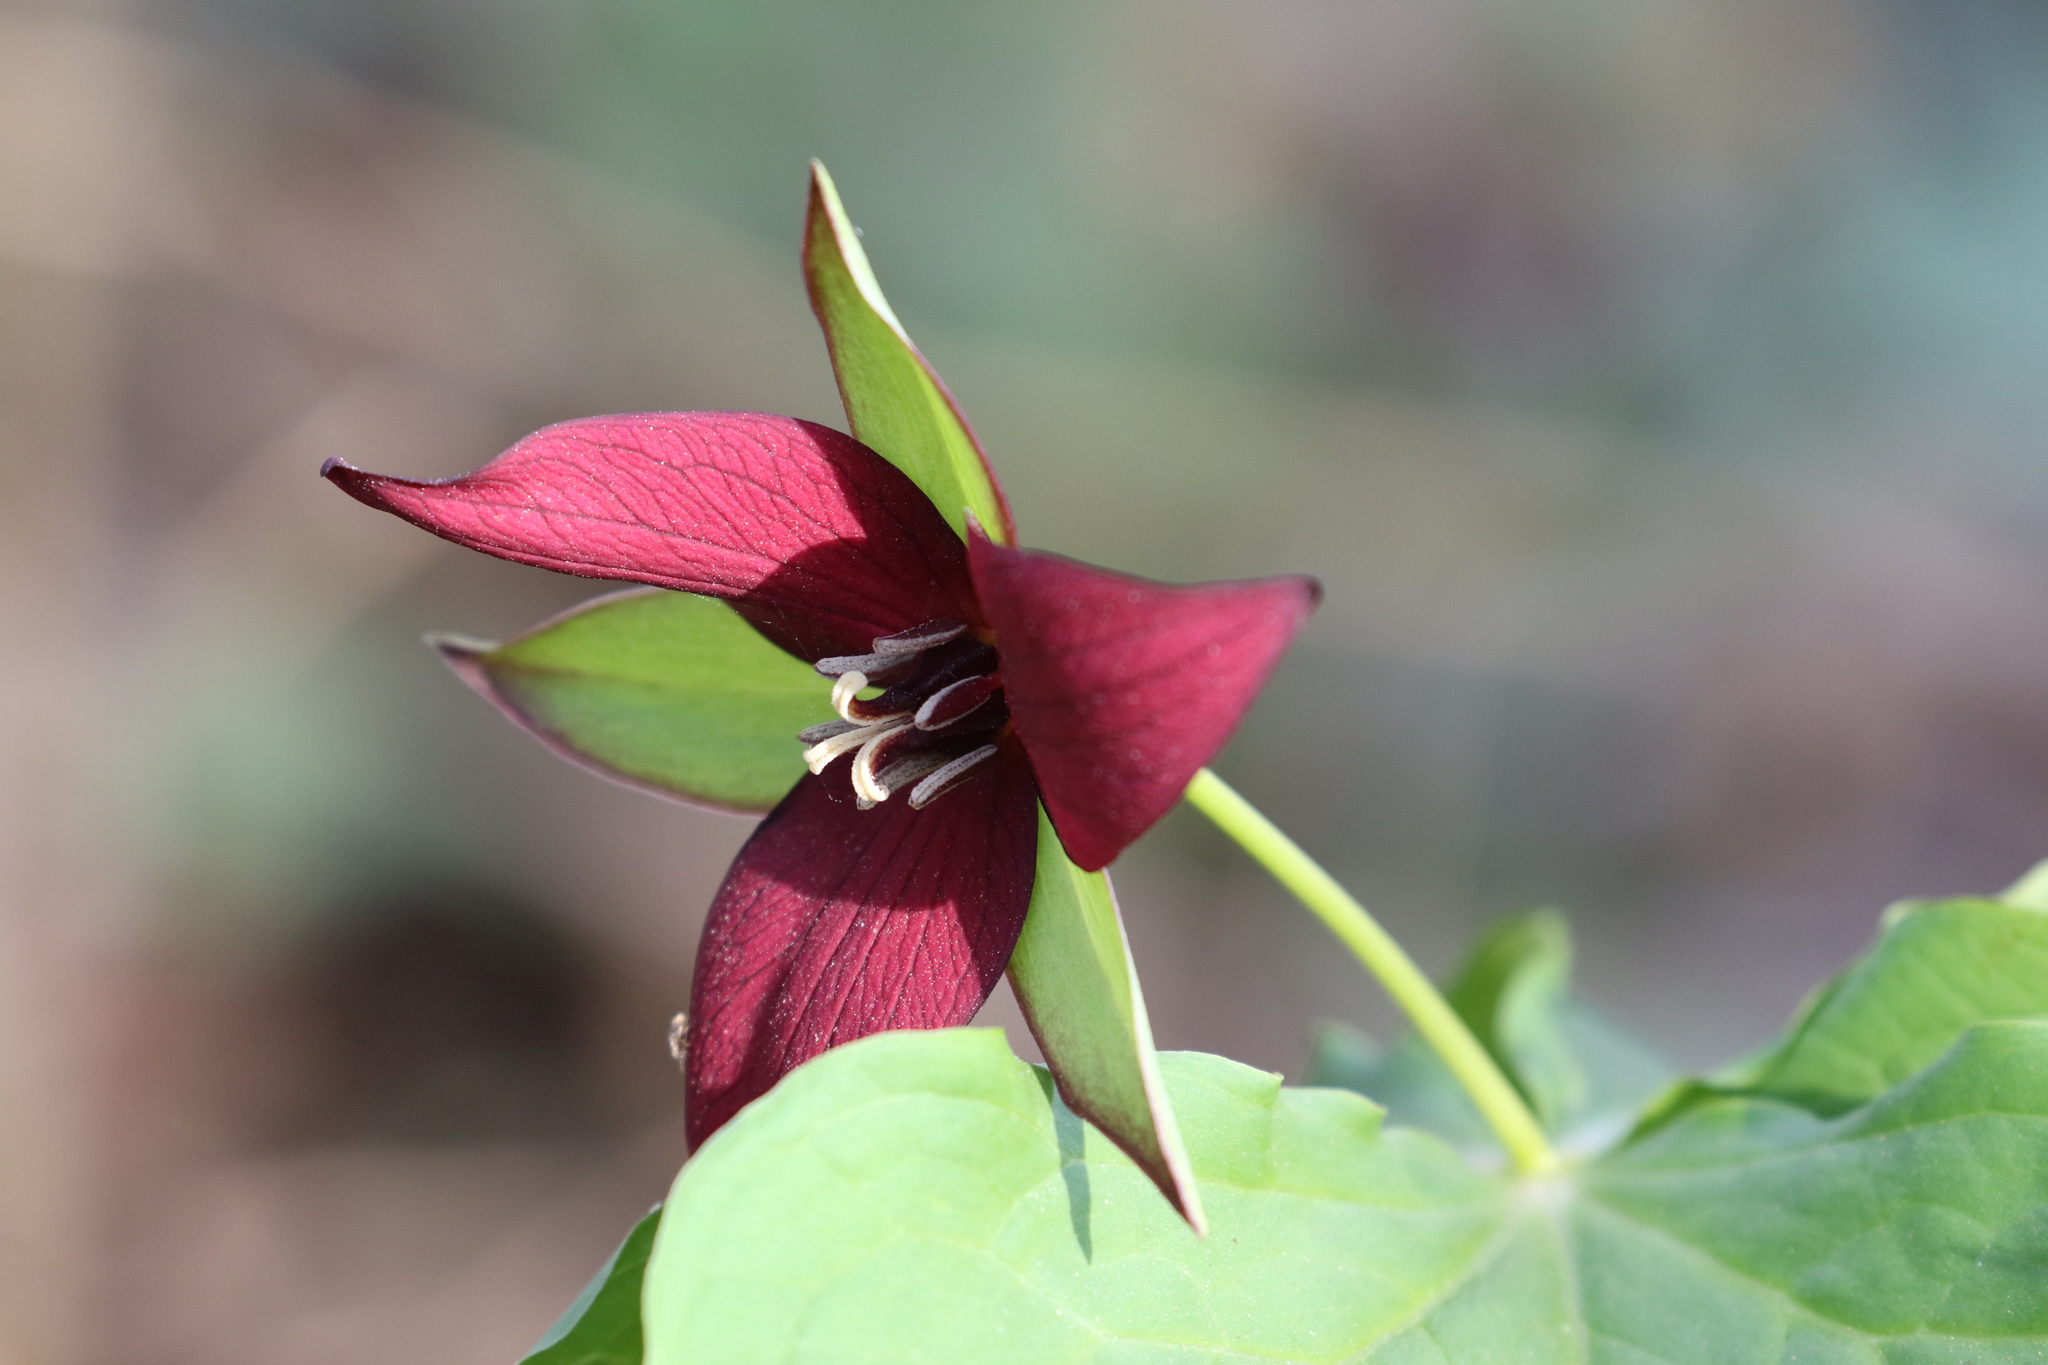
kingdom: Plantae
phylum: Tracheophyta
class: Liliopsida
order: Liliales
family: Melanthiaceae
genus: Trillium
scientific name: Trillium erectum
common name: Purple trillium
